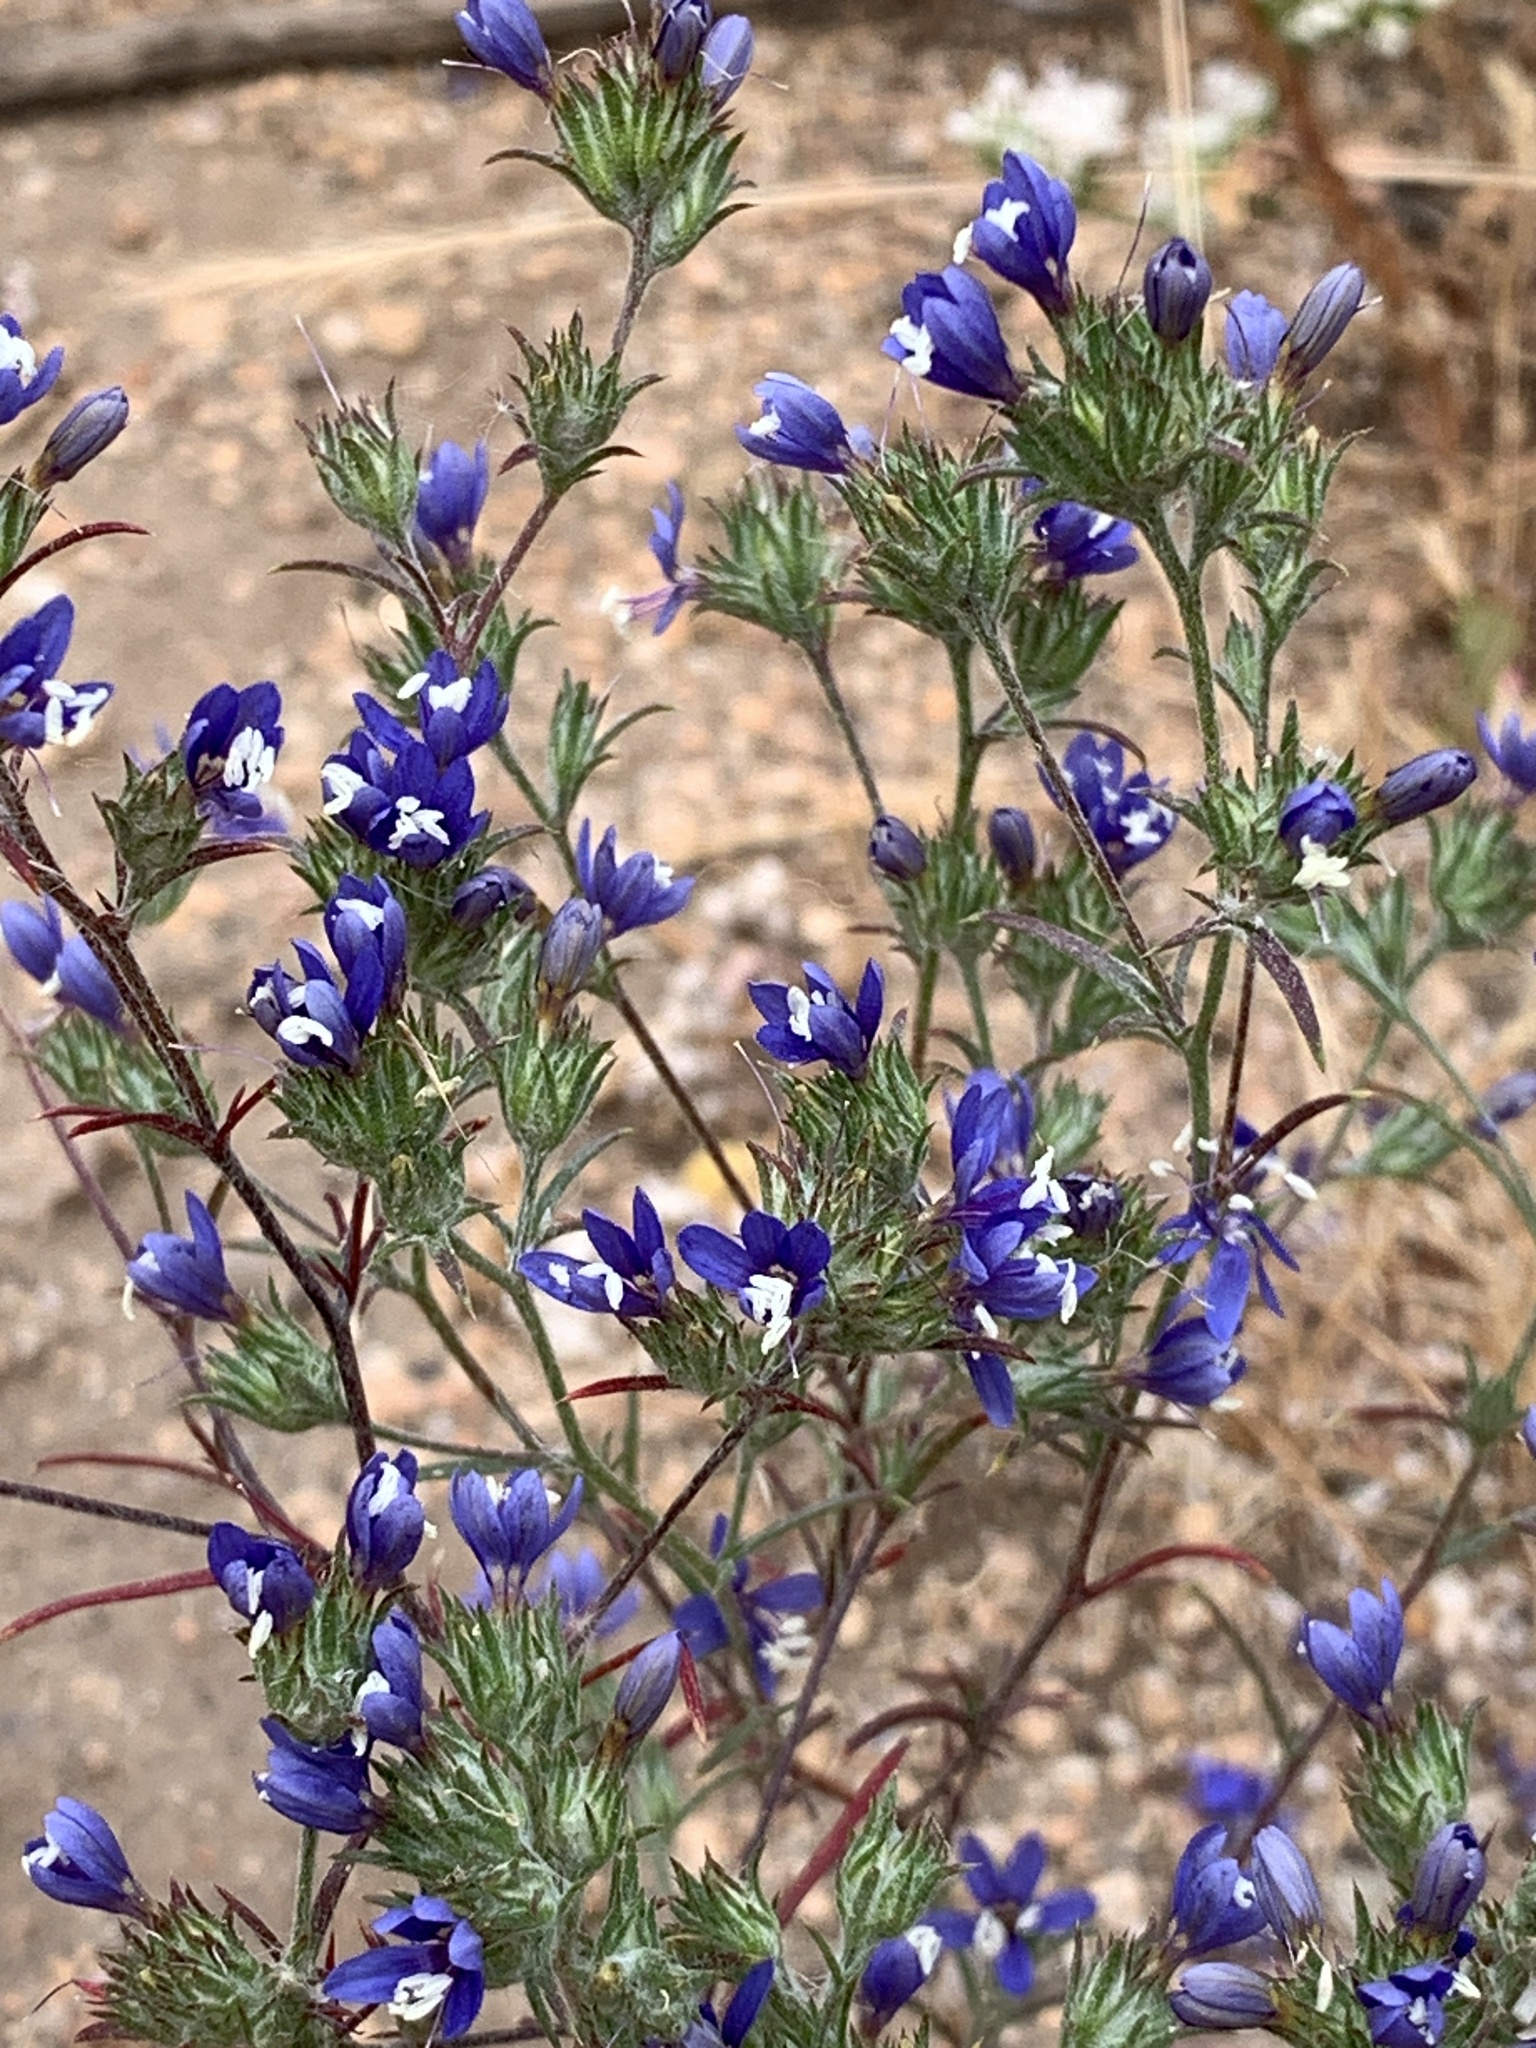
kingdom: Plantae
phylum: Tracheophyta
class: Magnoliopsida
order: Ericales
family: Polemoniaceae
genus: Eriastrum
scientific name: Eriastrum sapphirinum
